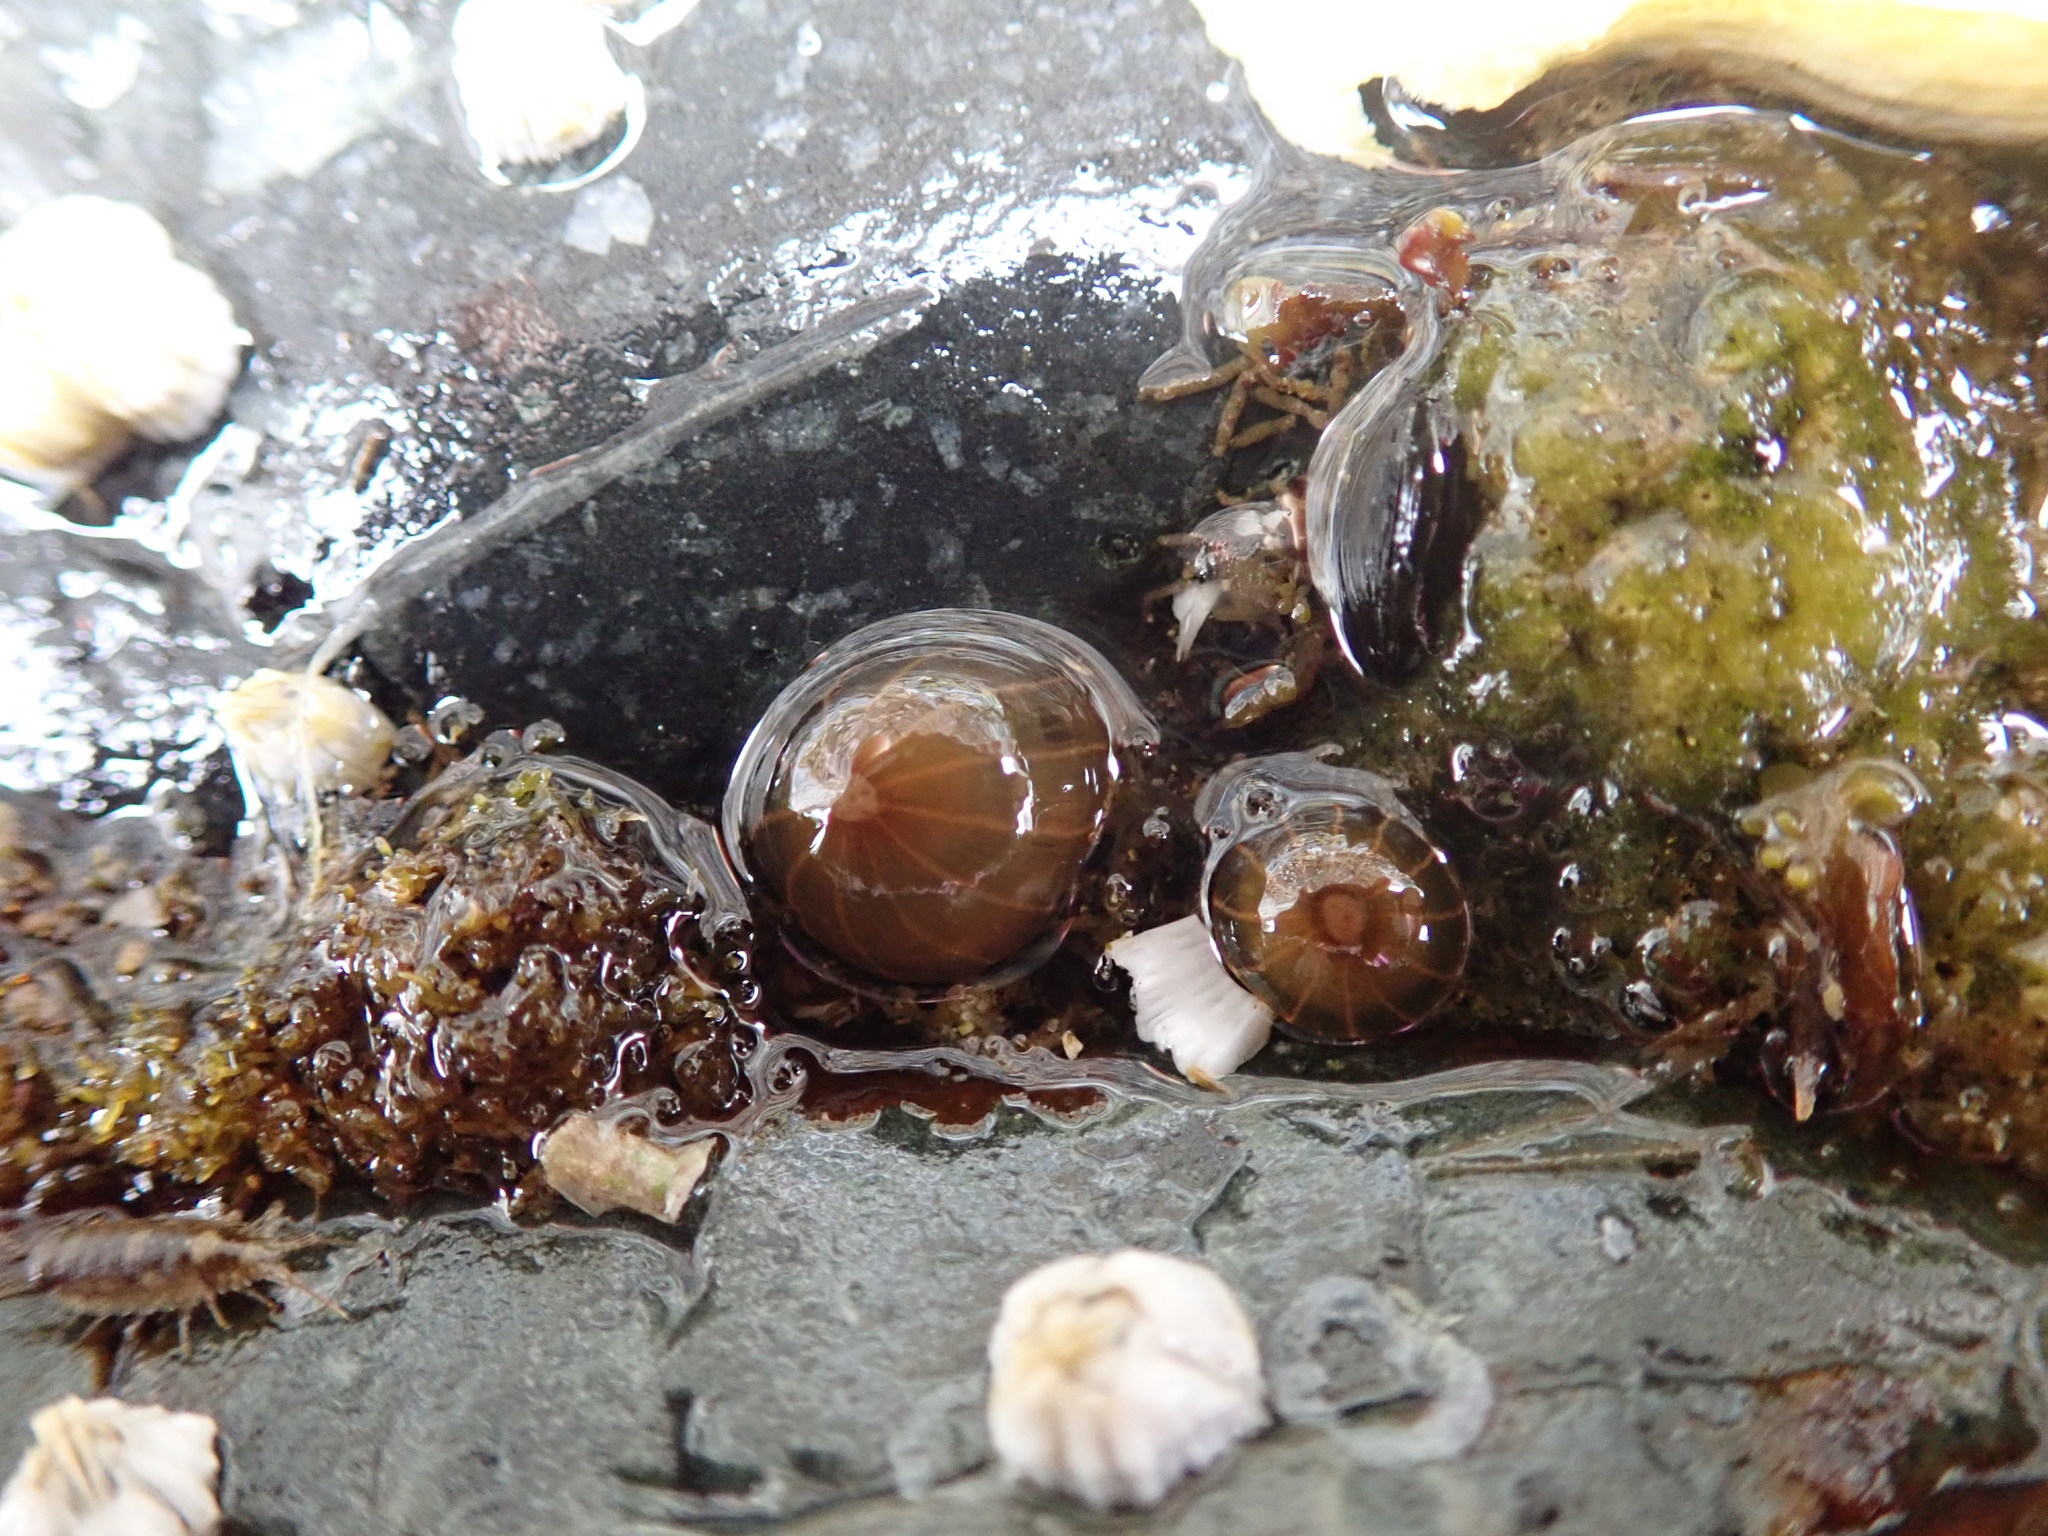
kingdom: Animalia
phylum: Cnidaria
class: Anthozoa
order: Actiniaria
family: Diadumenidae
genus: Diadumene
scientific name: Diadumene lineata
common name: Orange-striped anemone
